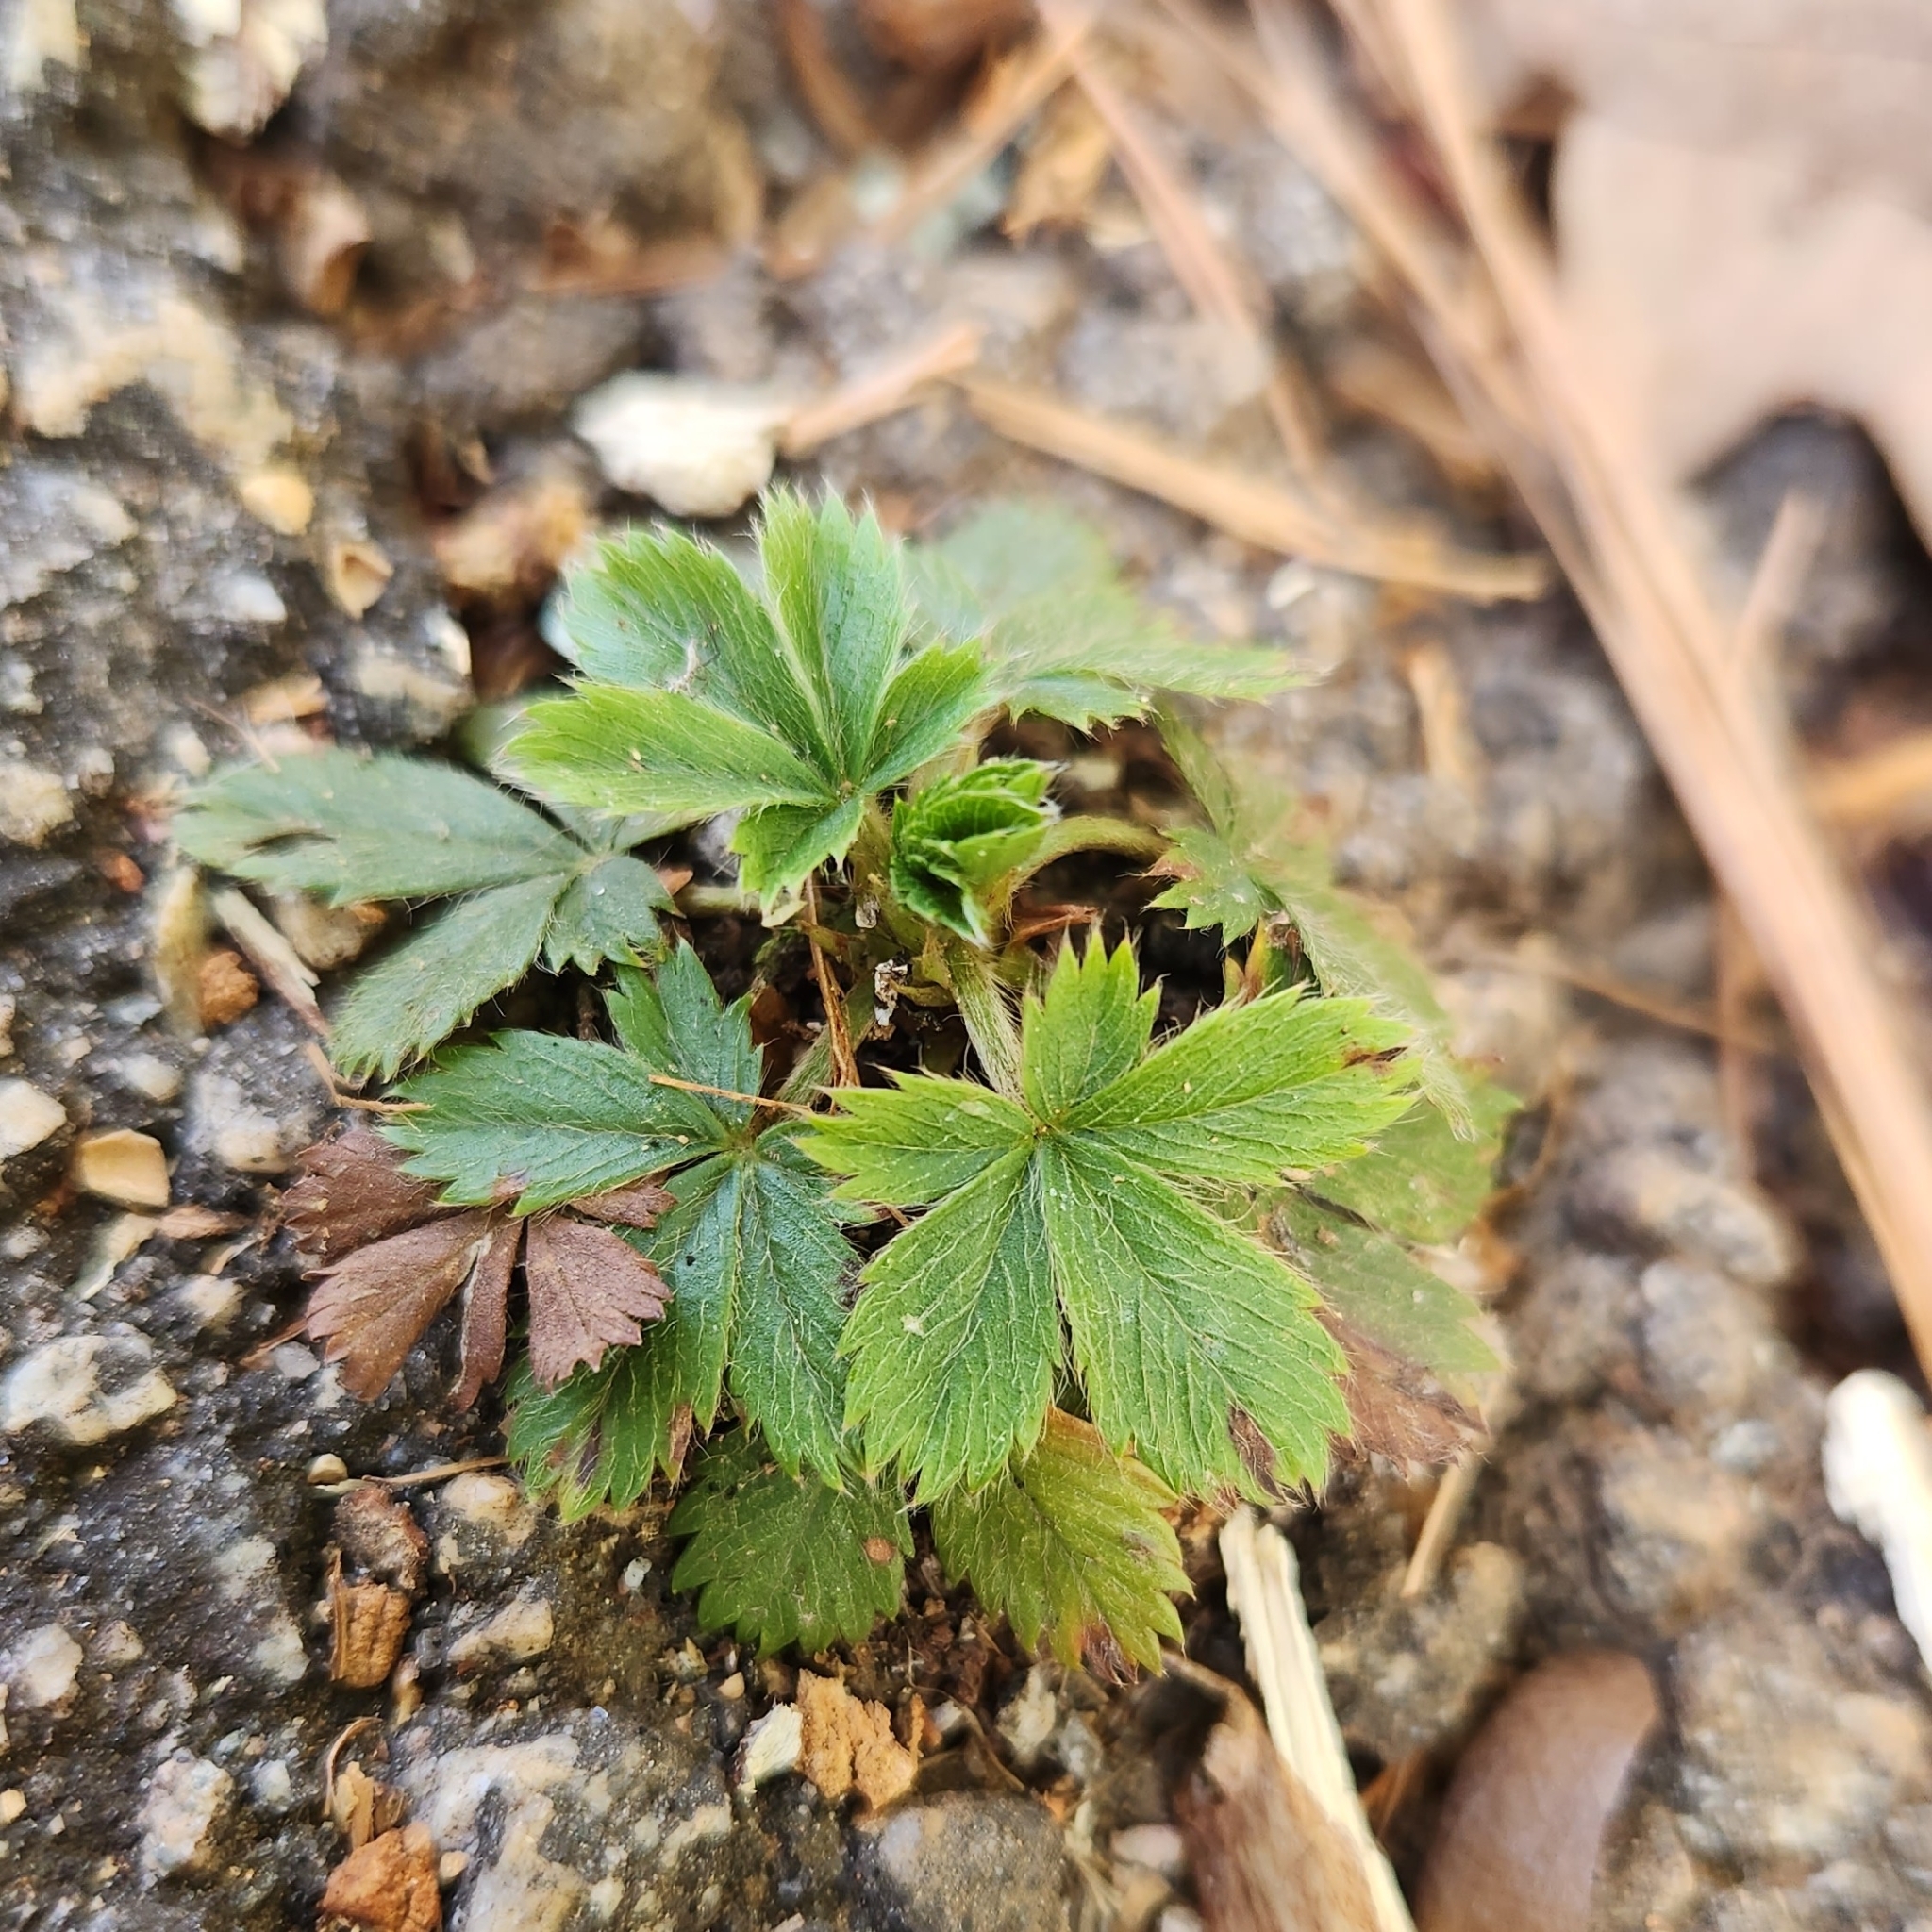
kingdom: Plantae
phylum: Tracheophyta
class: Magnoliopsida
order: Rosales
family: Rosaceae
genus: Potentilla
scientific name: Potentilla canadensis
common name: Canada cinquefoil
